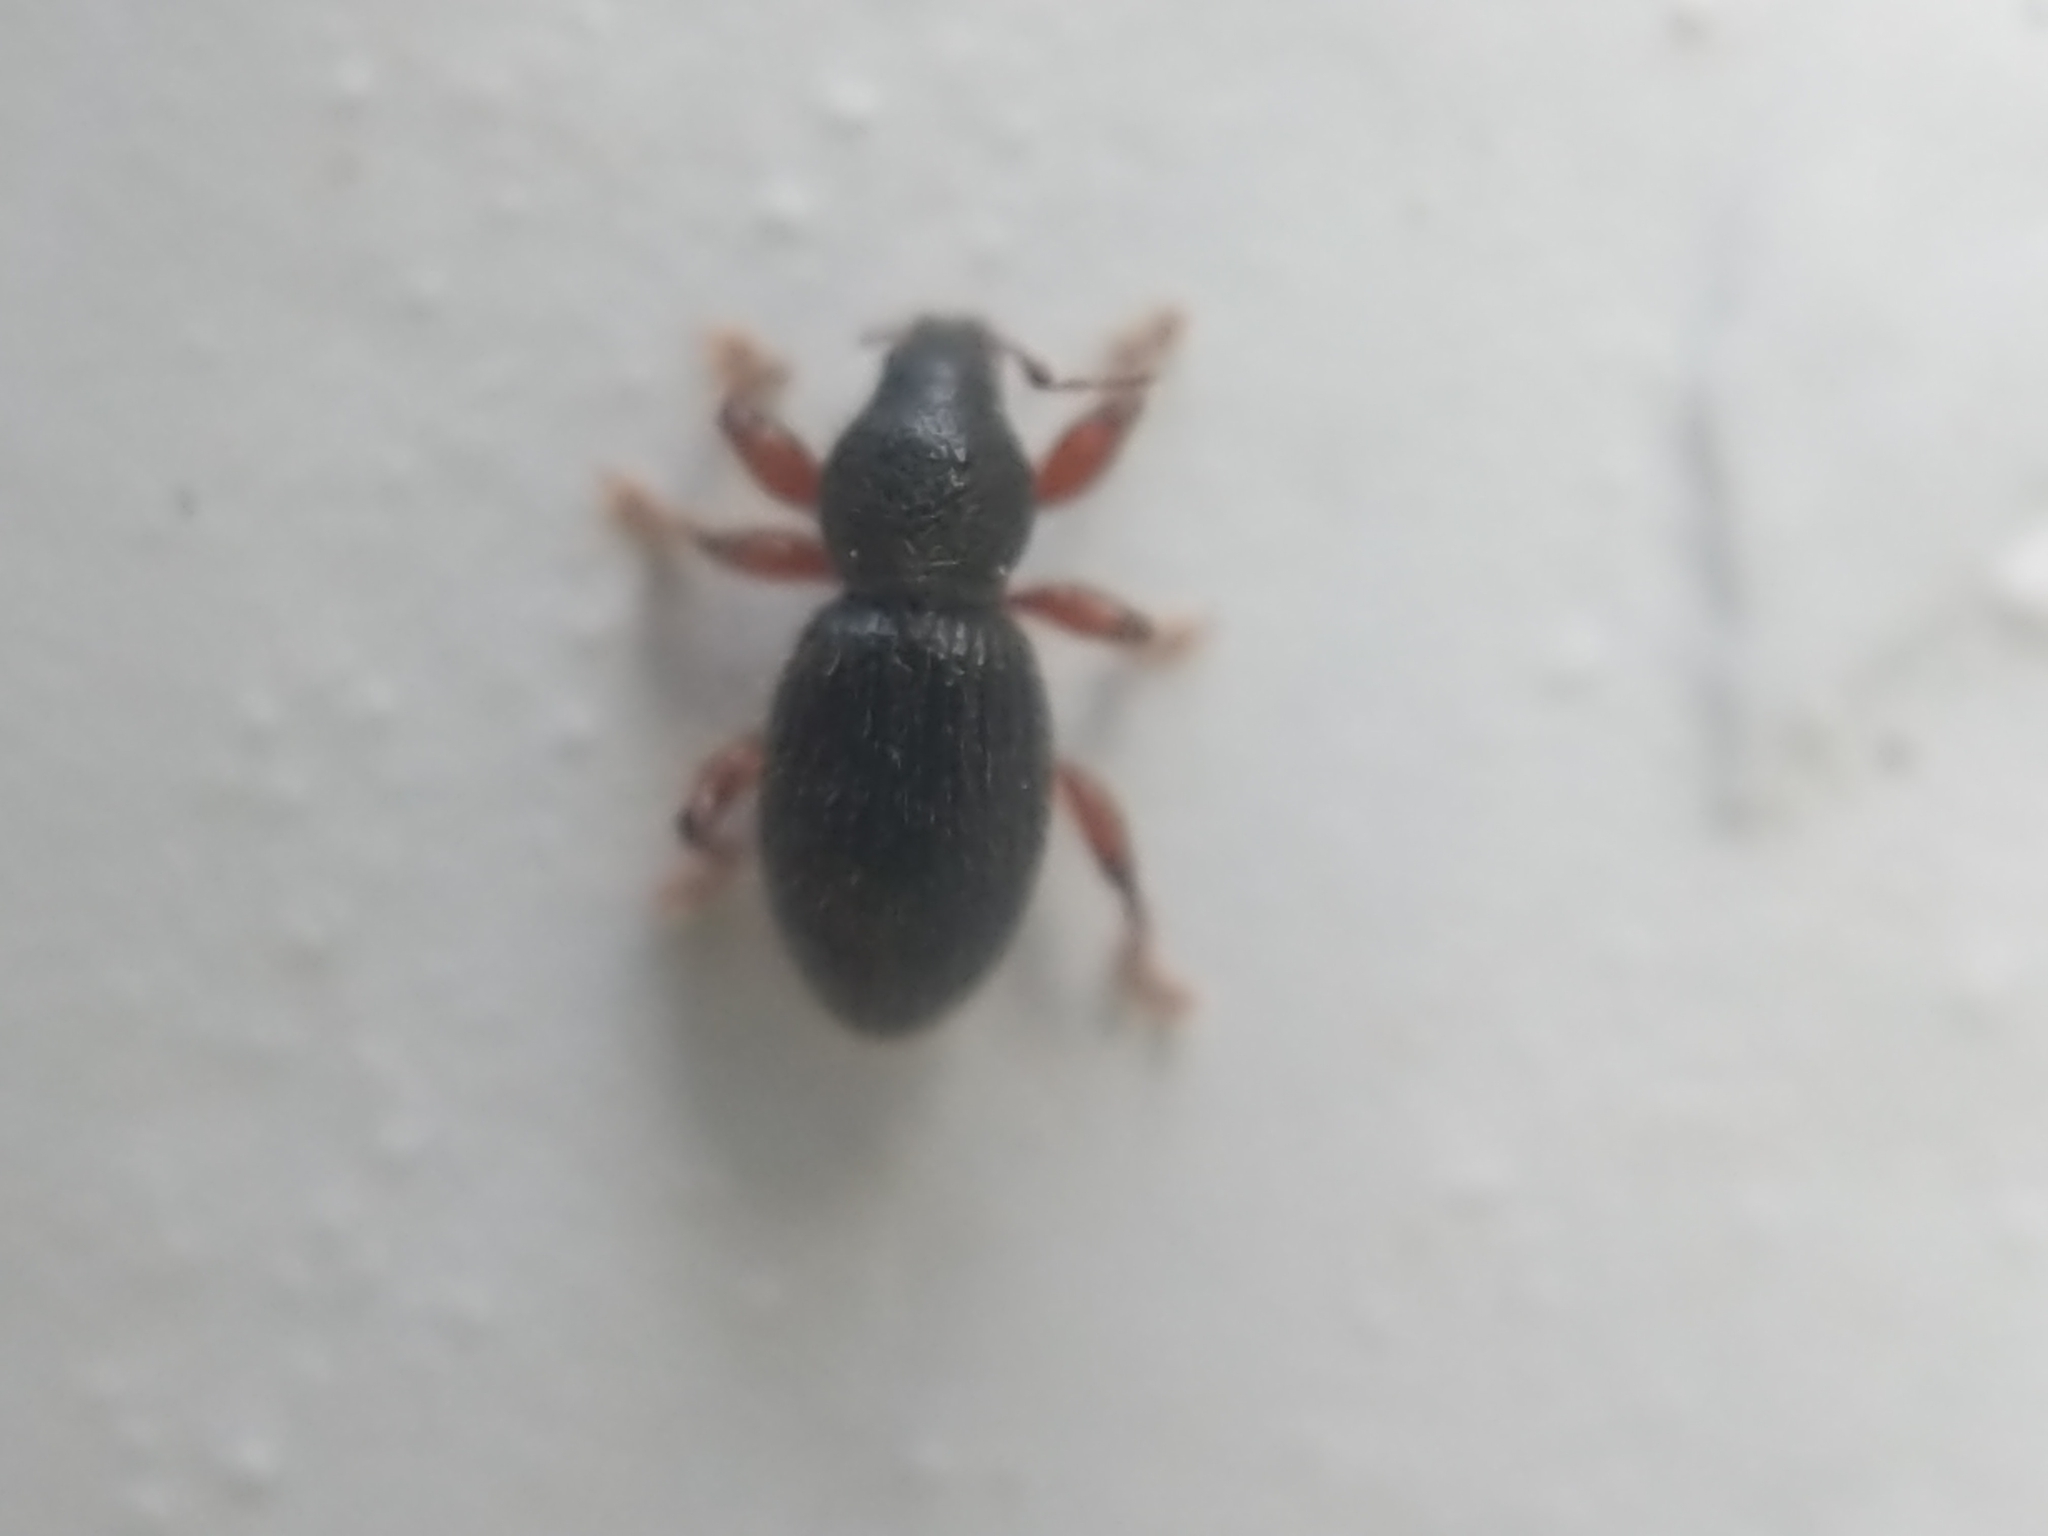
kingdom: Animalia
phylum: Arthropoda
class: Insecta
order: Coleoptera
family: Curculionidae
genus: Exomias
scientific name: Exomias pellucidus
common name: Hairy spider weevil
